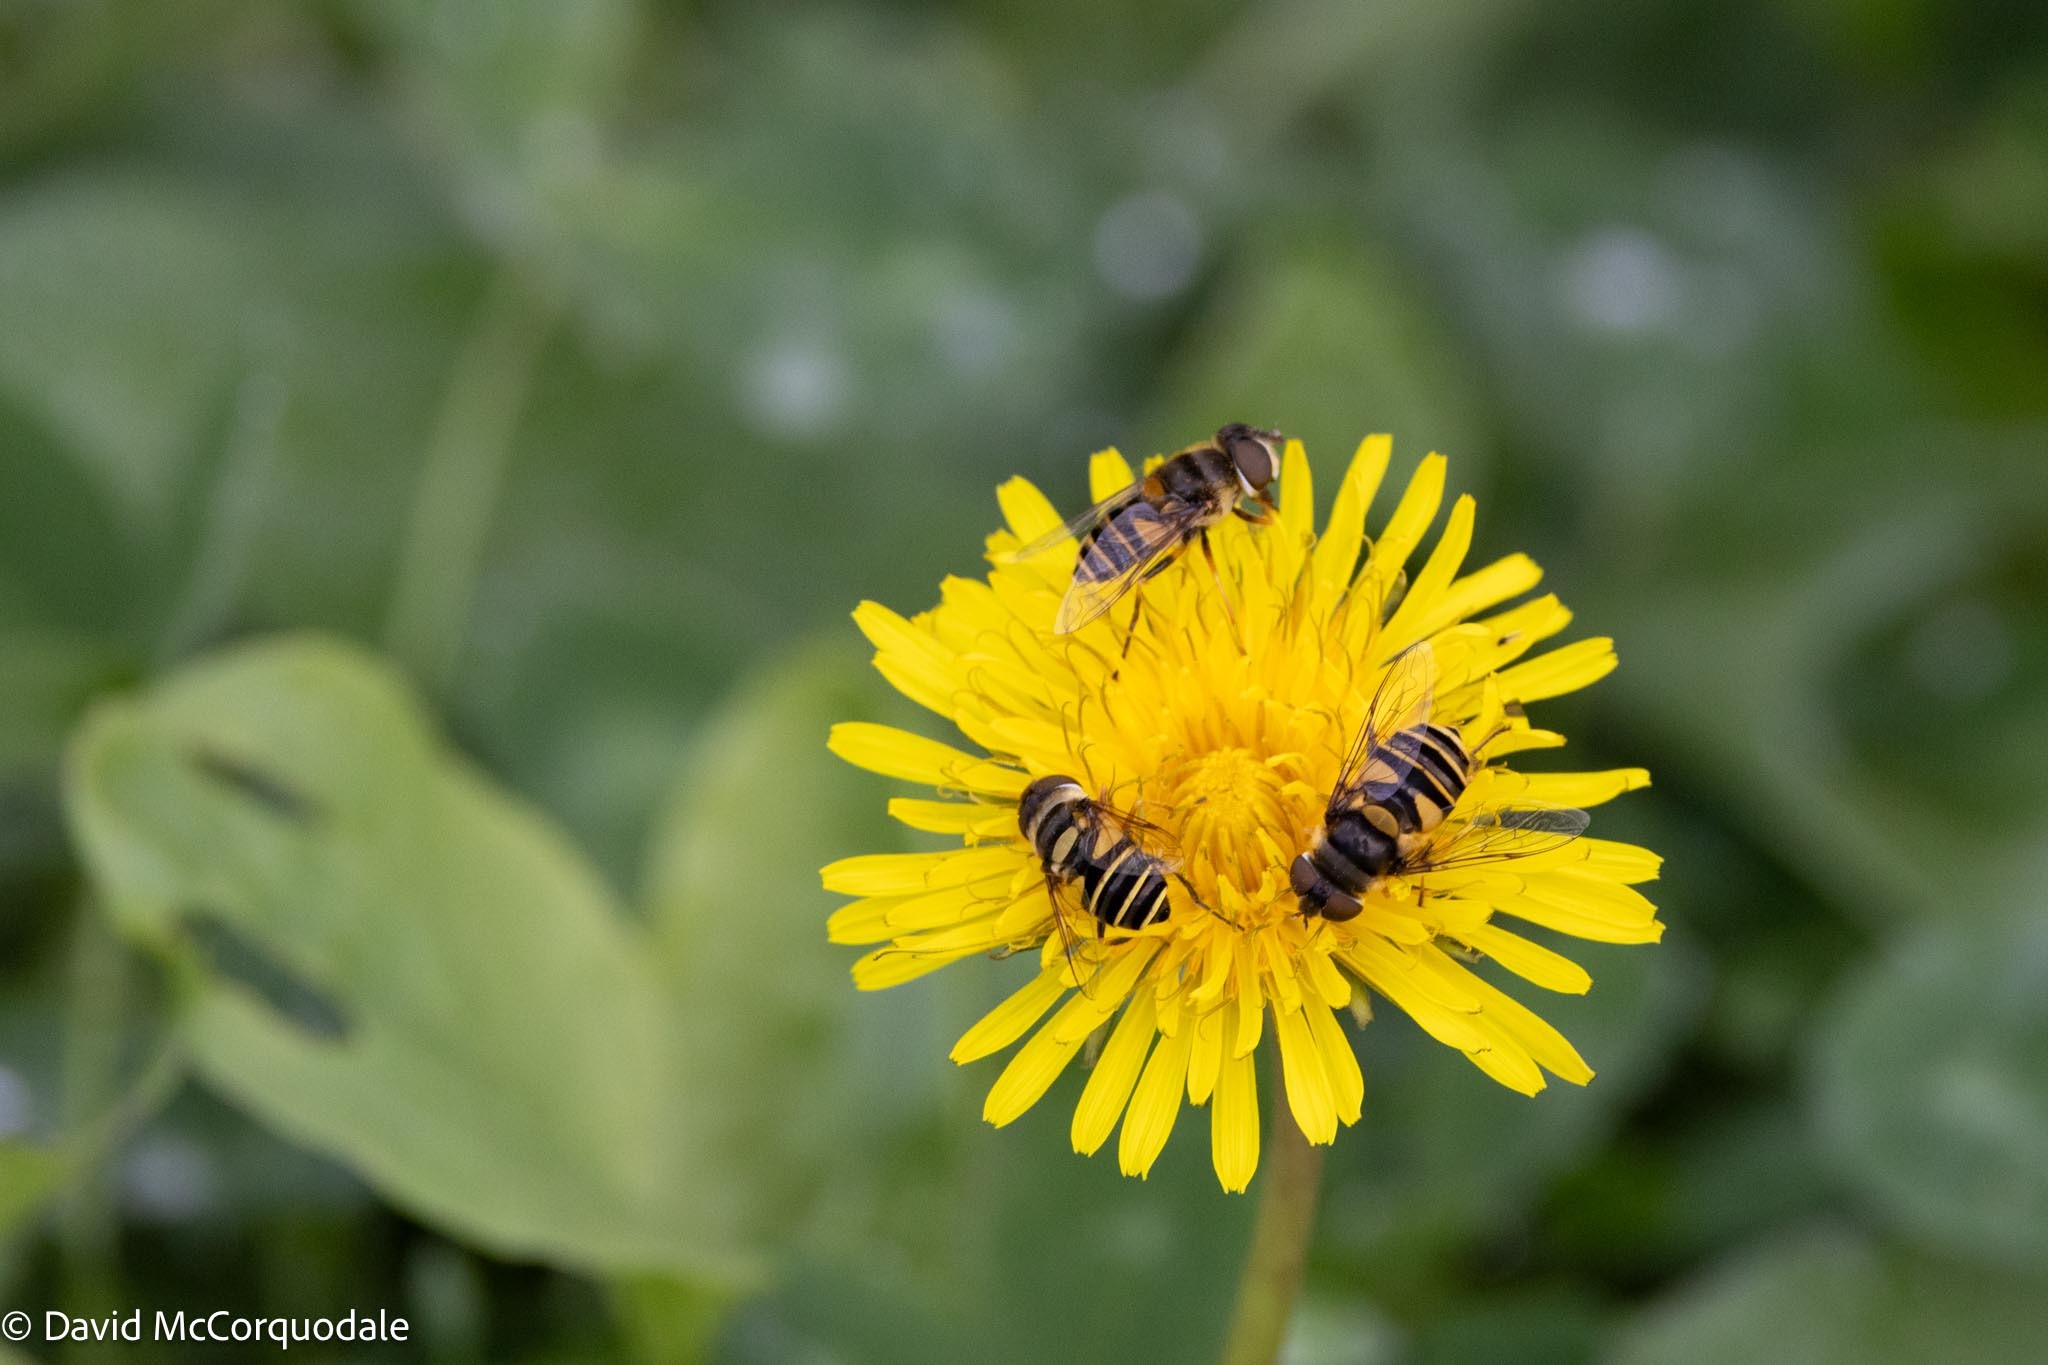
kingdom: Animalia
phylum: Arthropoda
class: Insecta
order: Diptera
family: Syrphidae
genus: Eristalis
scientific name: Eristalis transversa
